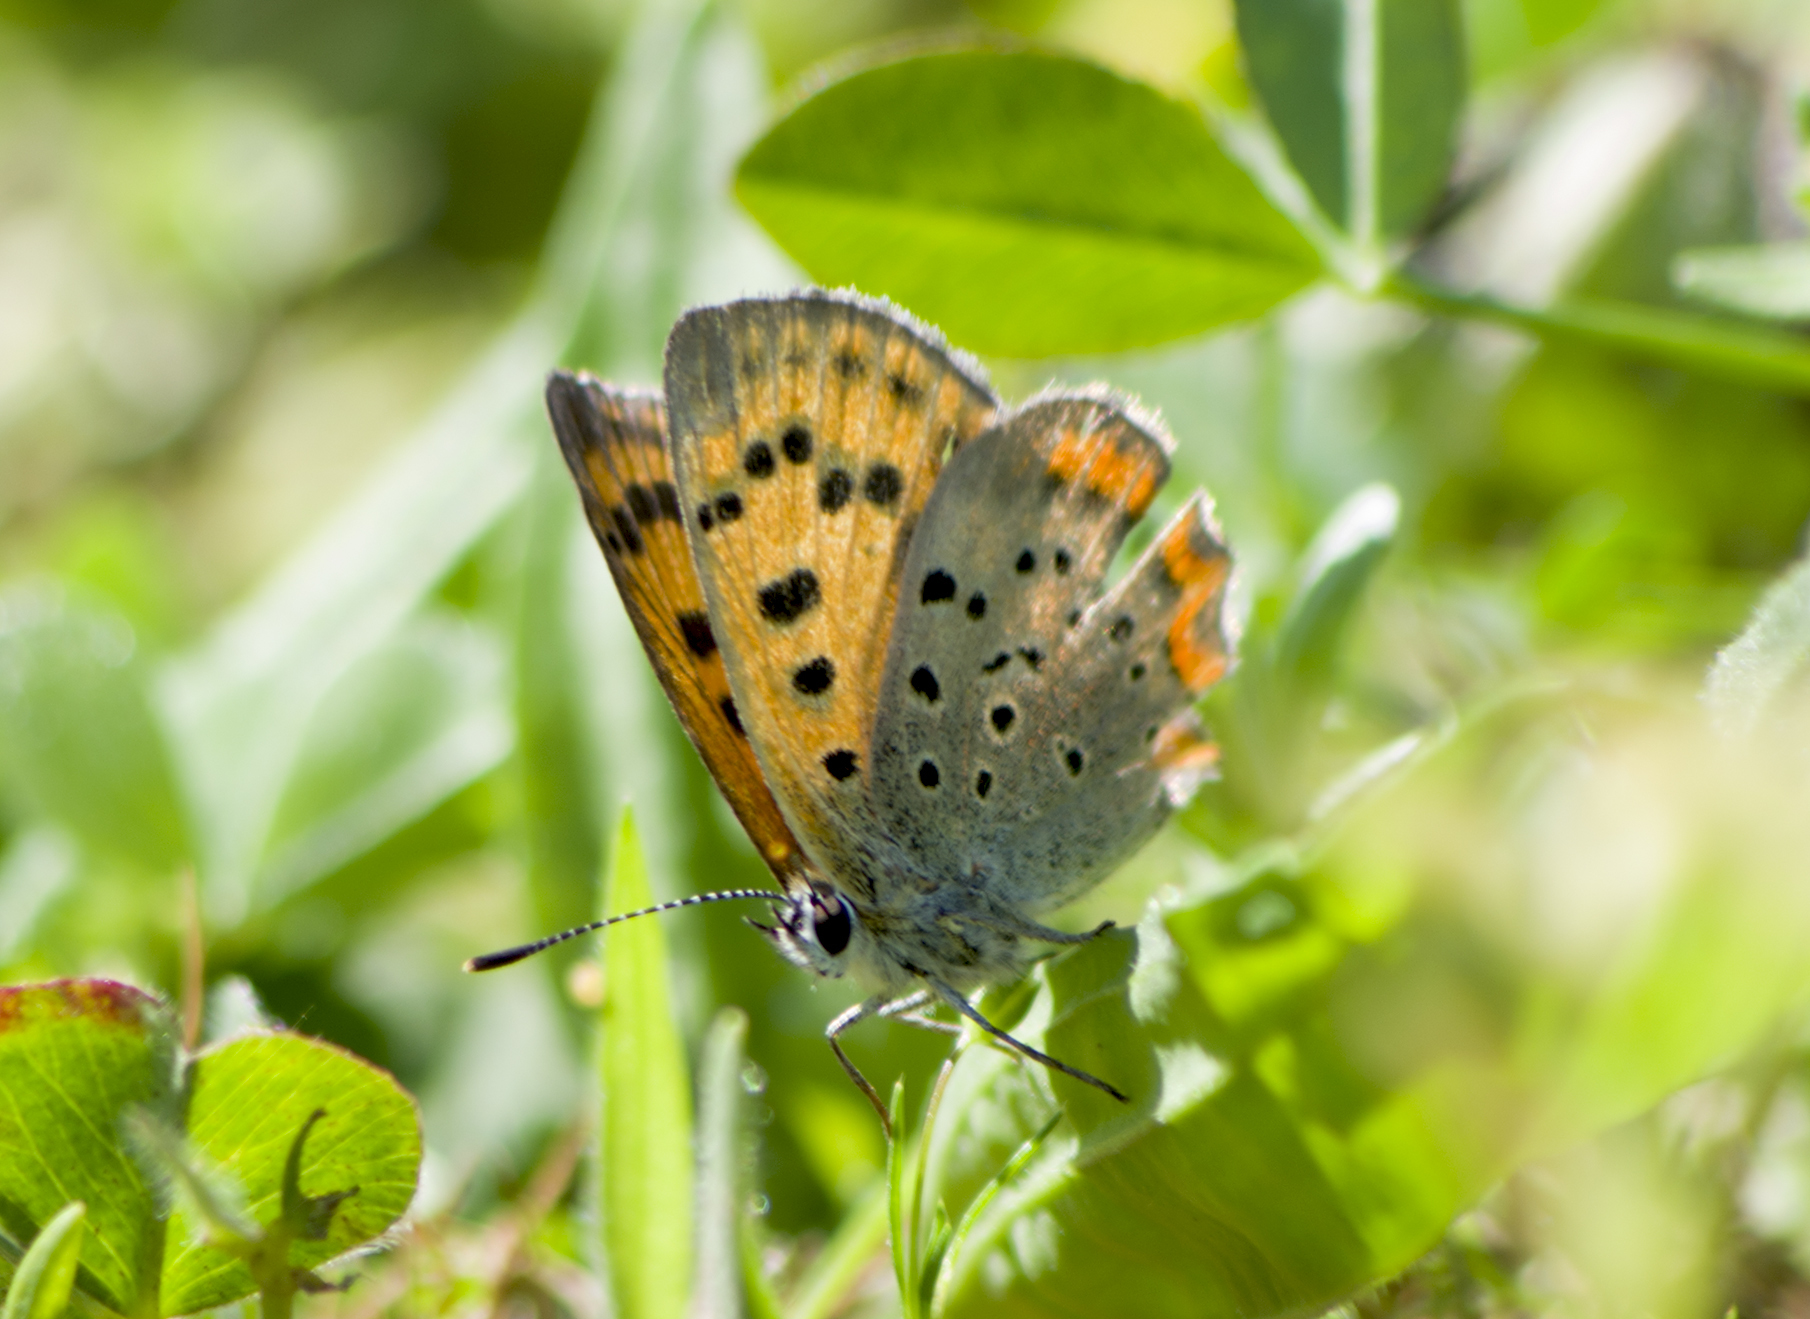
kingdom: Animalia
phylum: Arthropoda
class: Insecta
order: Lepidoptera
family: Lycaenidae
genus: Polyommatus
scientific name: Polyommatus ottomanus
